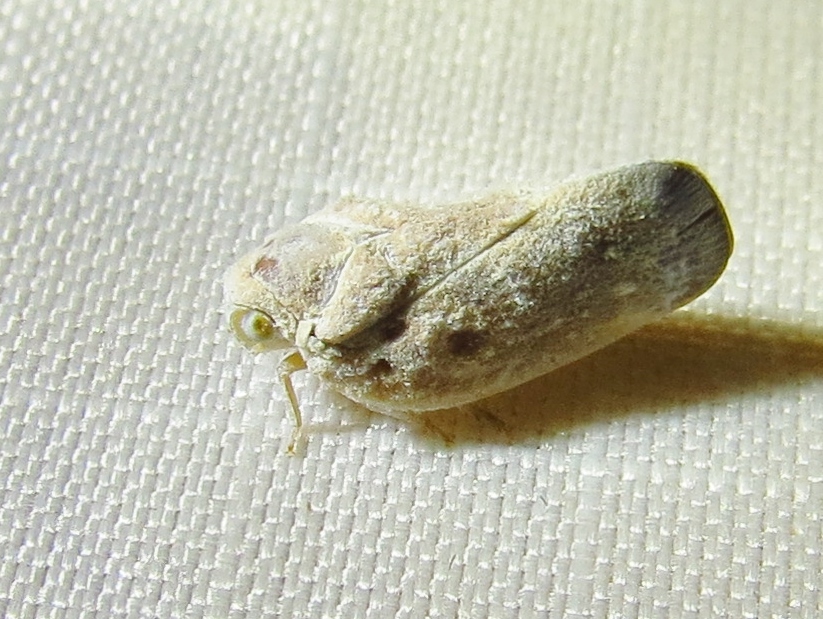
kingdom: Animalia
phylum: Arthropoda
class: Insecta
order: Hemiptera
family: Flatidae
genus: Metcalfa
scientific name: Metcalfa pruinosa
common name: Citrus flatid planthopper
